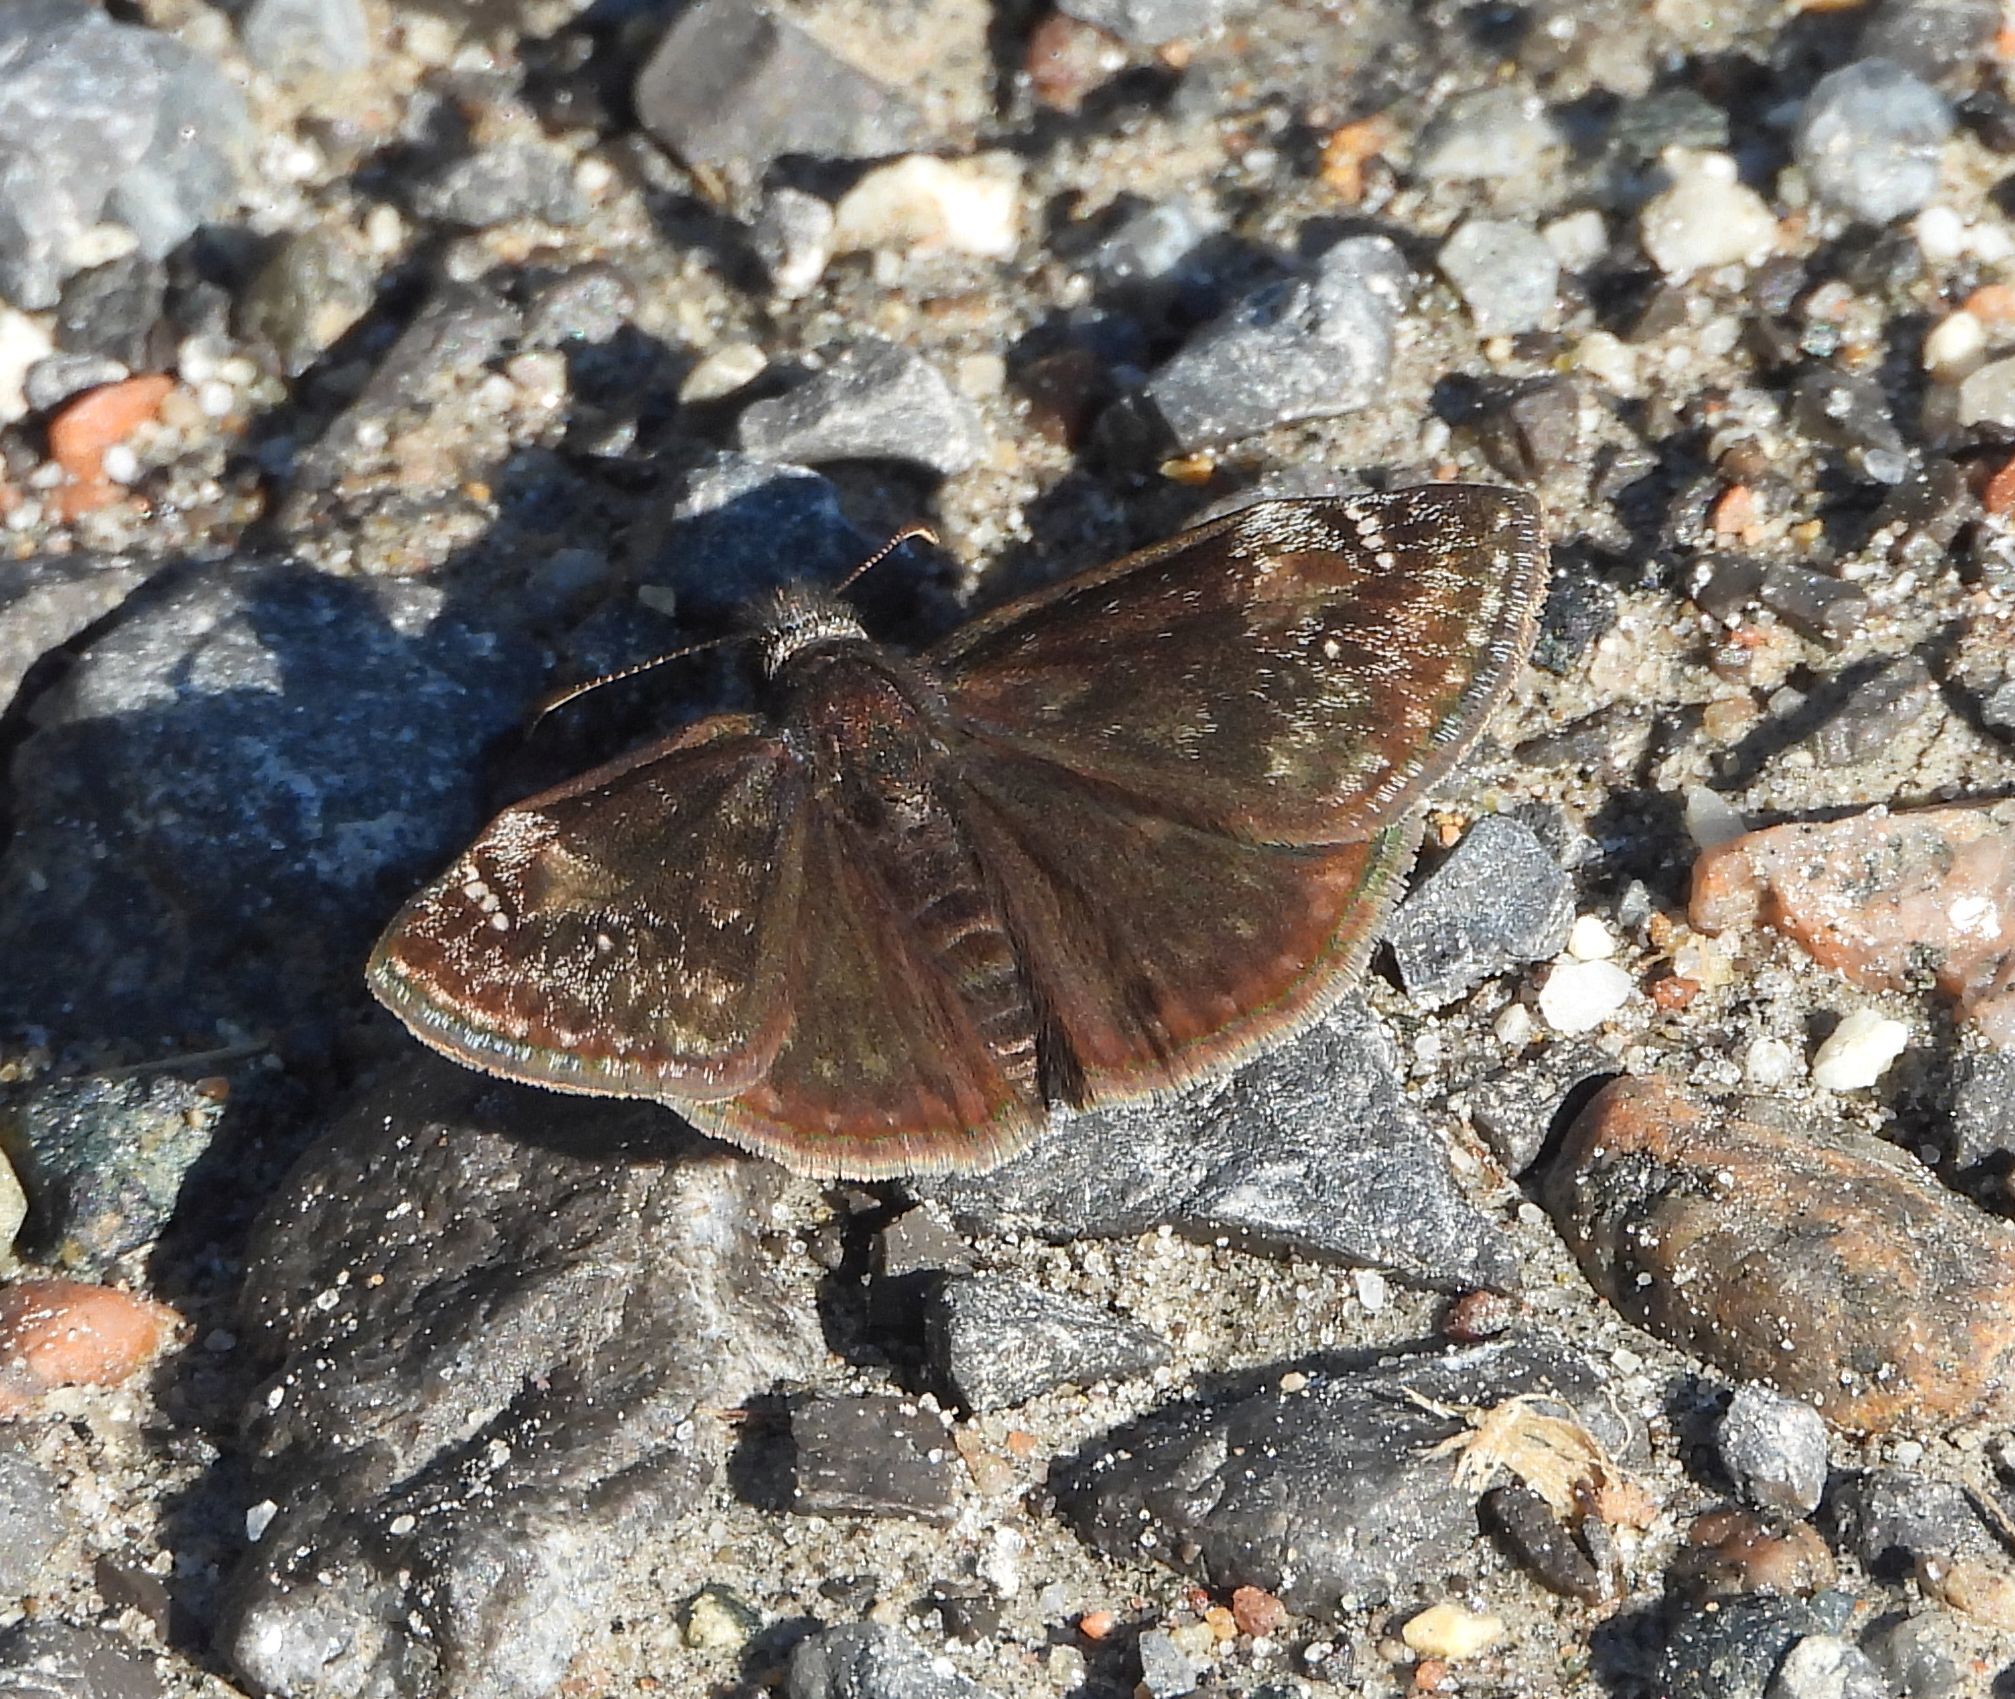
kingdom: Animalia
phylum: Arthropoda
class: Insecta
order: Lepidoptera
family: Hesperiidae
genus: Erynnis
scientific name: Erynnis lucilius
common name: Columbine duskywing
